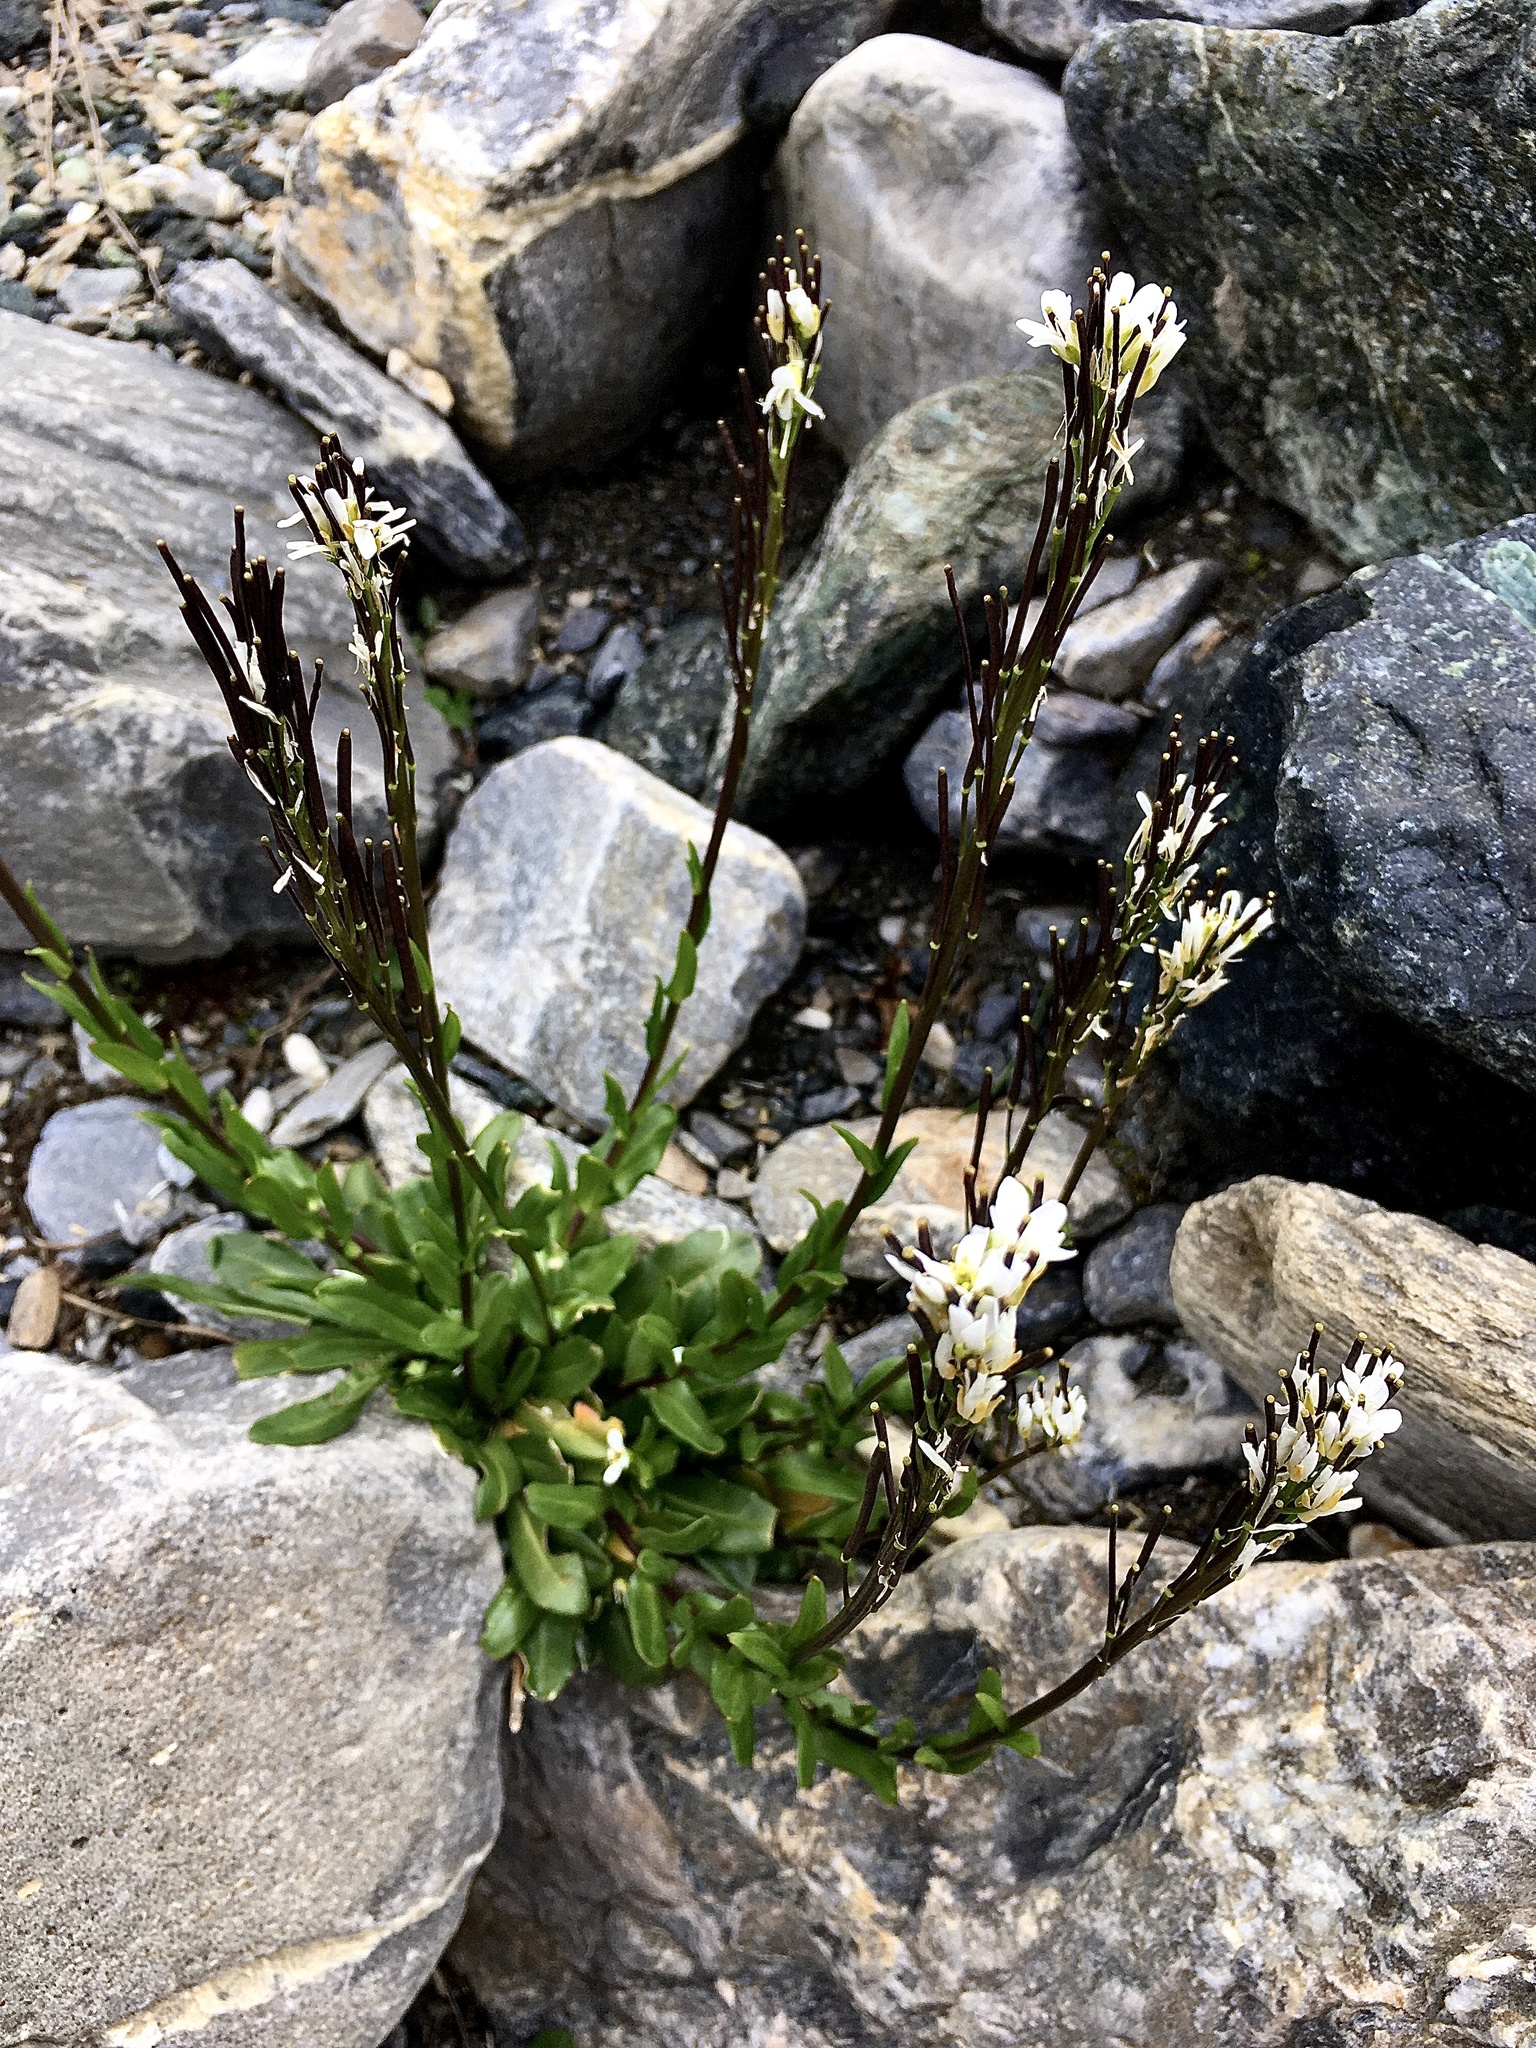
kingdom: Plantae
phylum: Tracheophyta
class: Magnoliopsida
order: Brassicales
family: Brassicaceae
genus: Arabis
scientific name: Arabis soyeri
